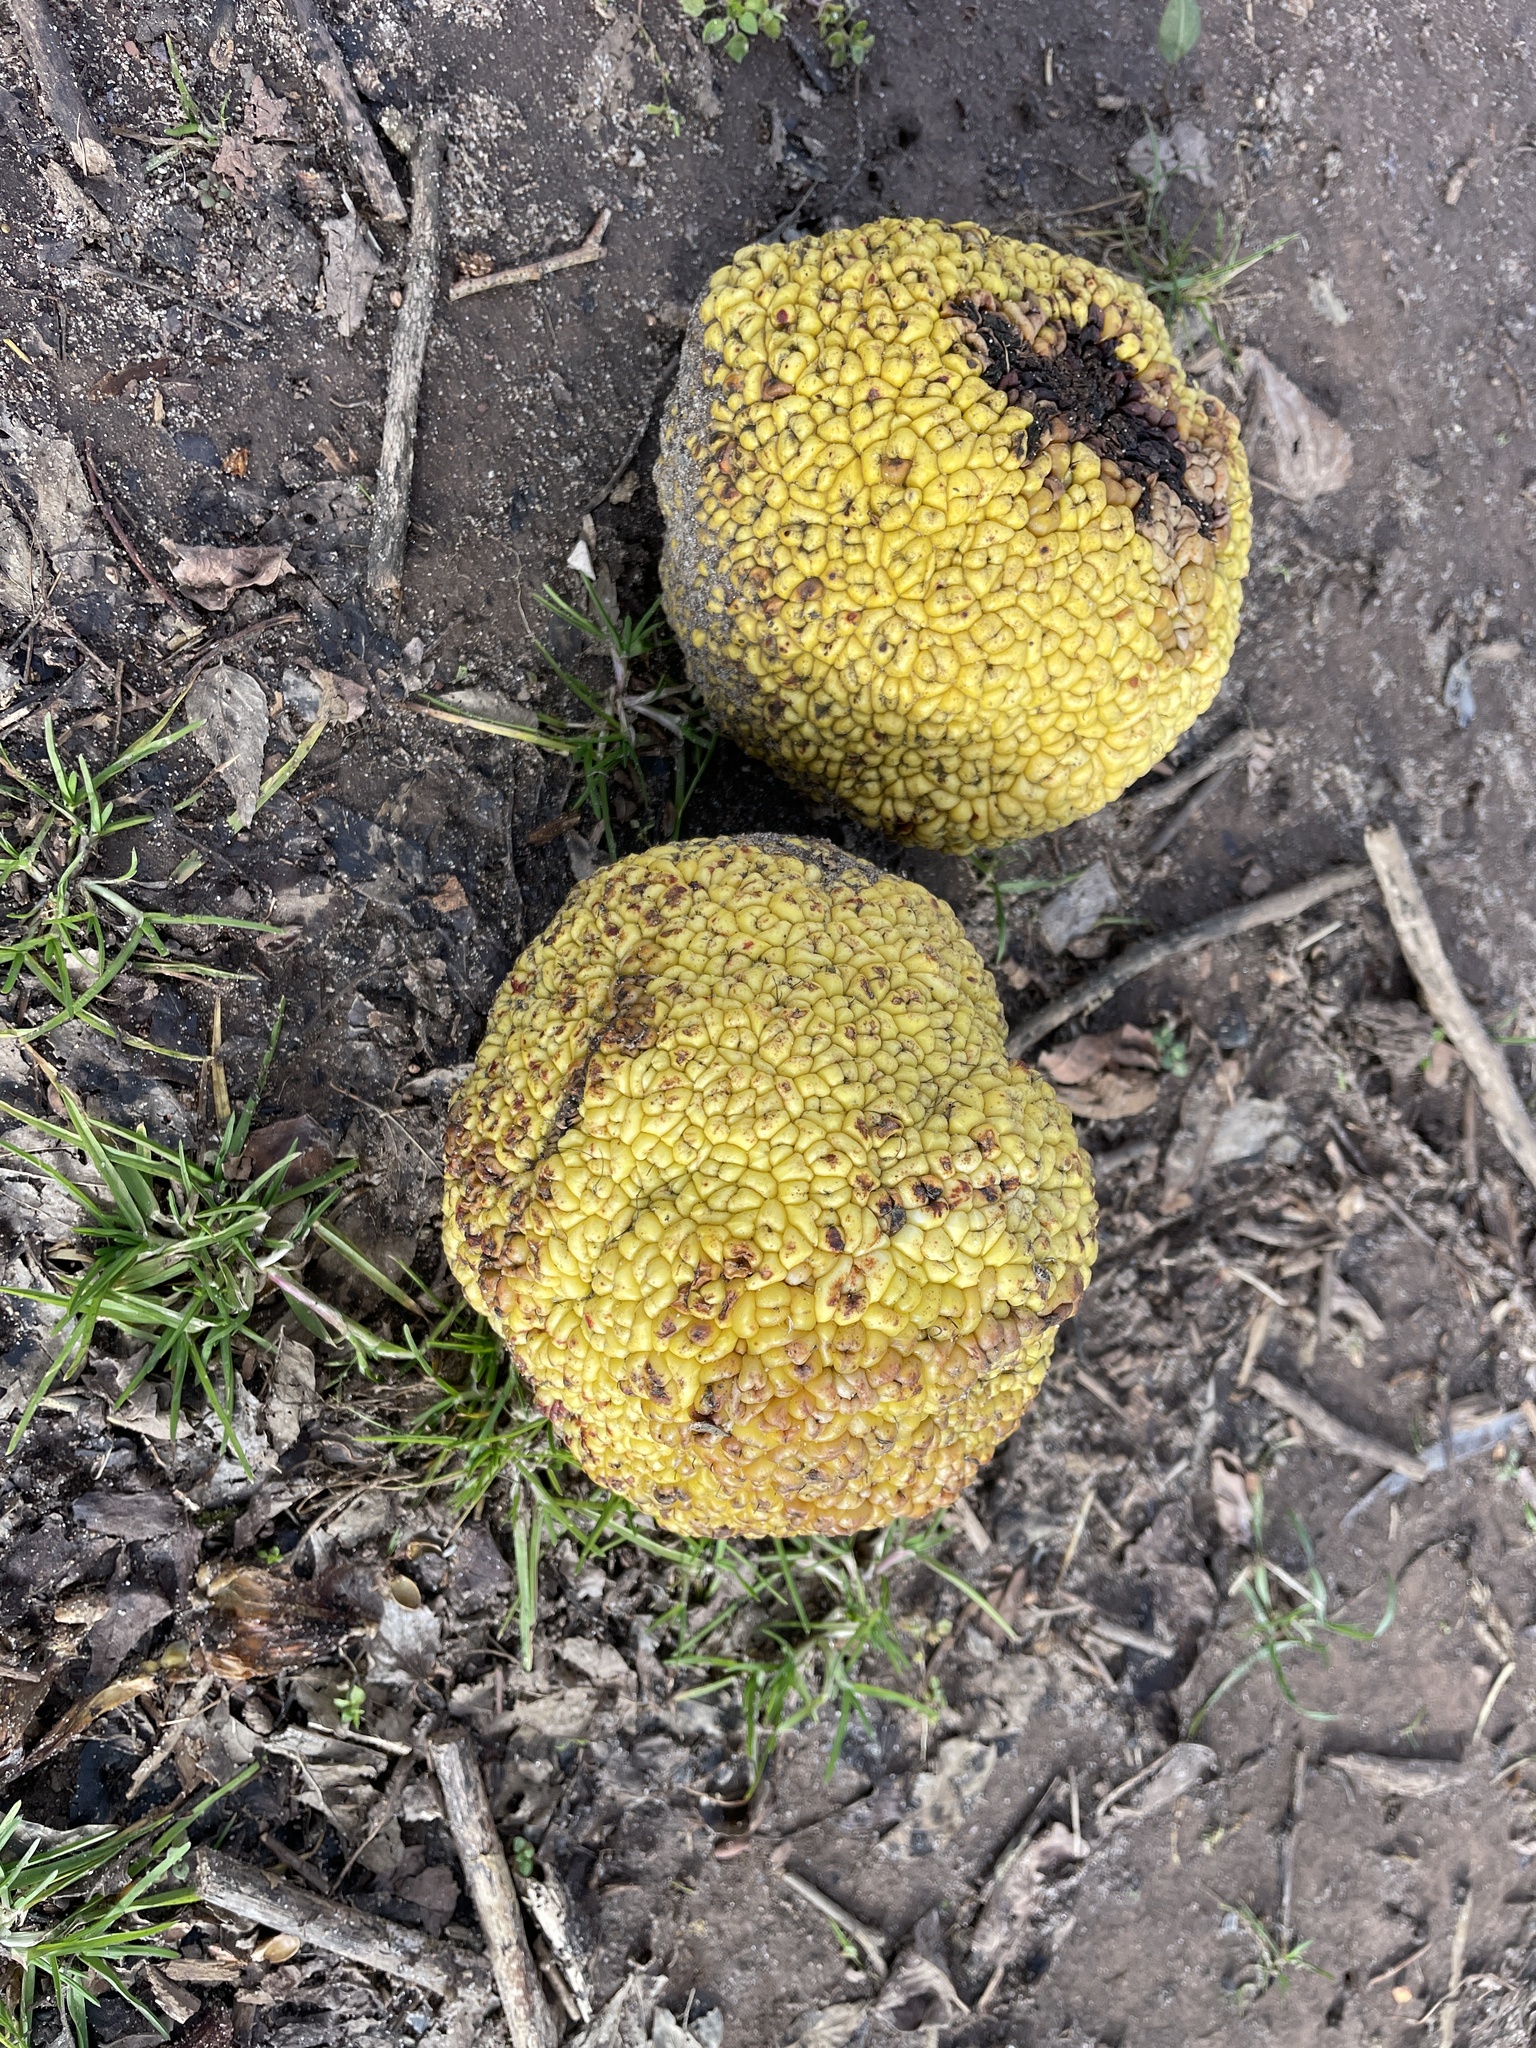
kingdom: Plantae
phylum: Tracheophyta
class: Magnoliopsida
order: Rosales
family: Moraceae
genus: Maclura
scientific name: Maclura pomifera
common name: Osage-orange
